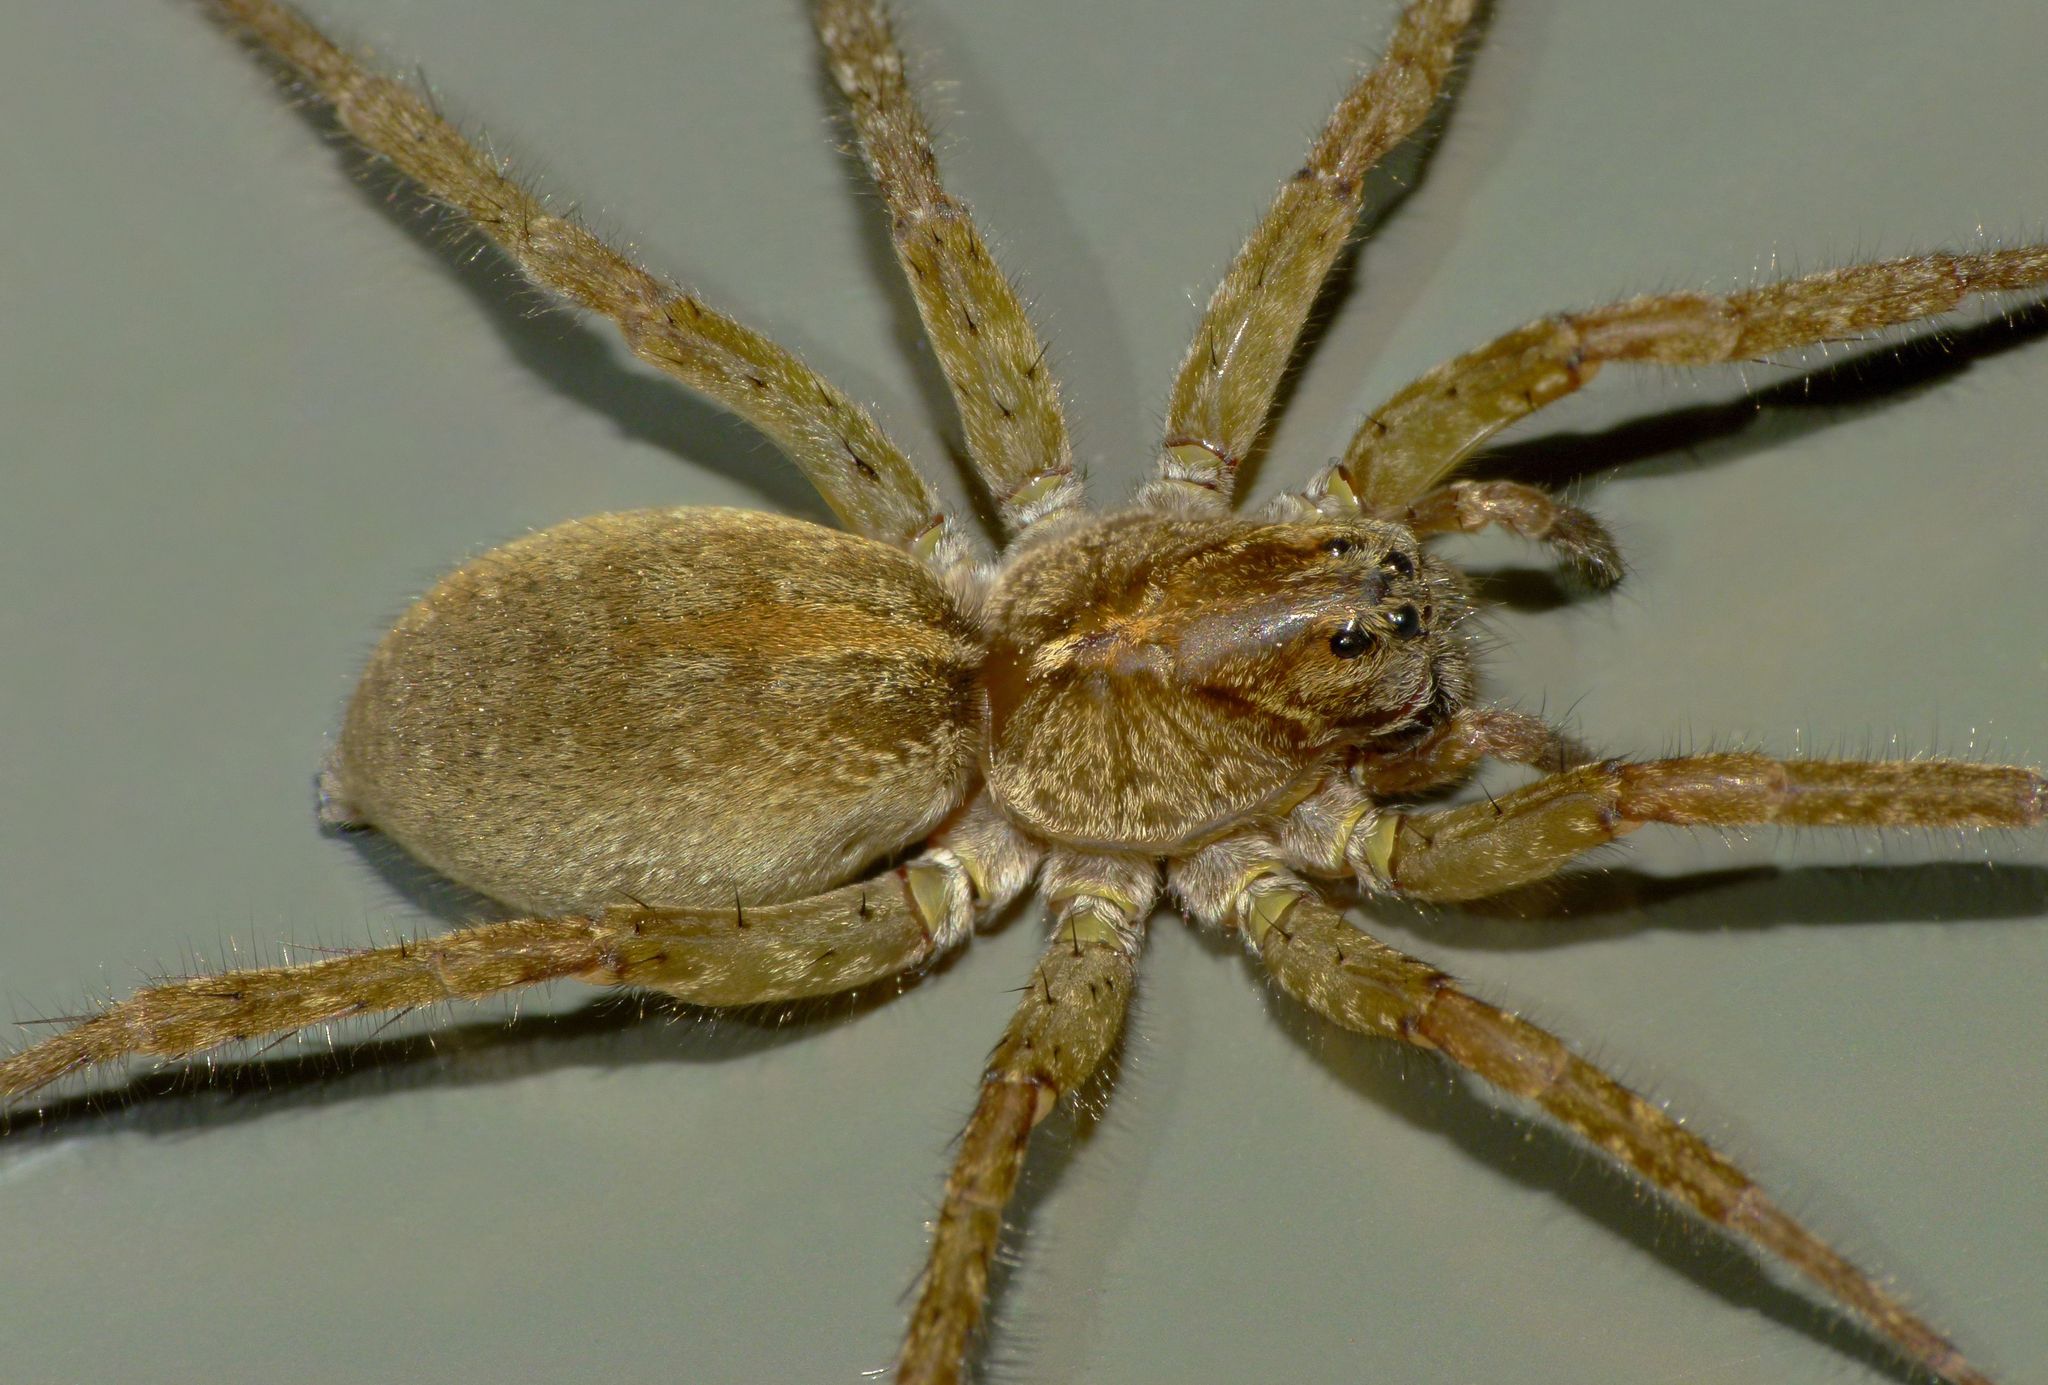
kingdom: Animalia
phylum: Arthropoda
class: Arachnida
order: Araneae
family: Lycosidae
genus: Anoteropsis
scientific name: Anoteropsis senica
